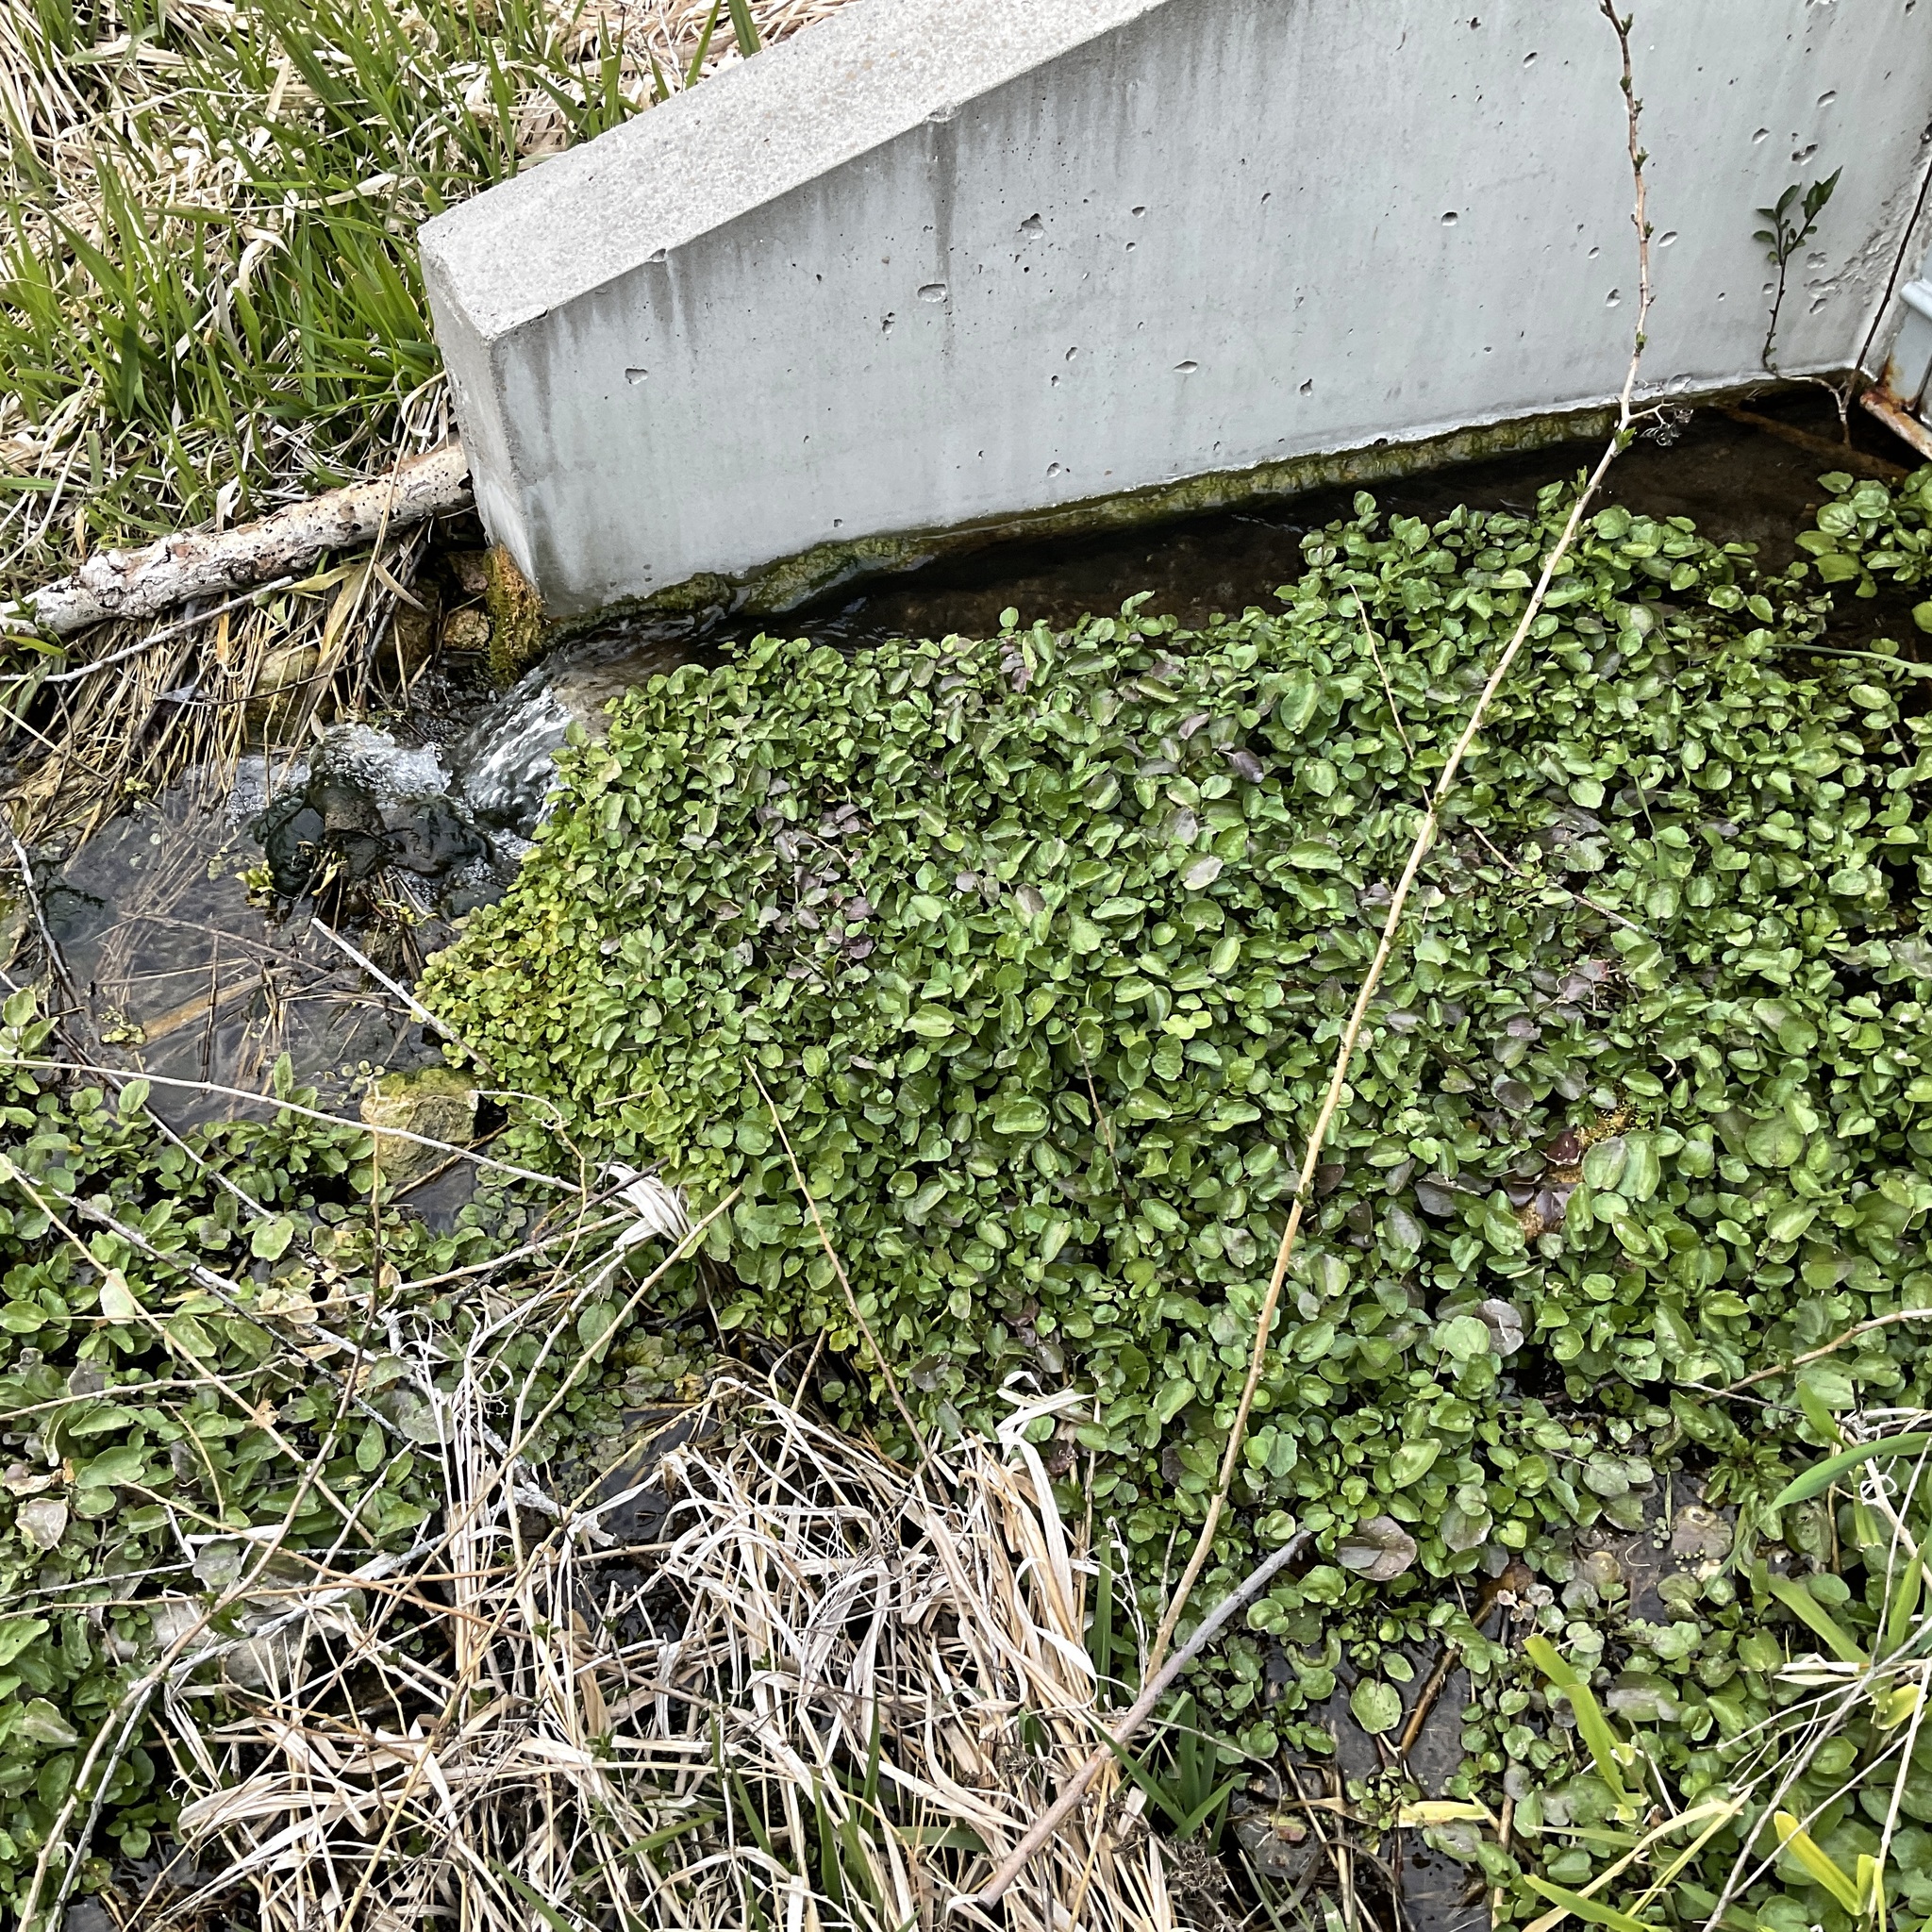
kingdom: Plantae
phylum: Tracheophyta
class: Magnoliopsida
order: Brassicales
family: Brassicaceae
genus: Nasturtium
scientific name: Nasturtium officinale
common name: Watercress
